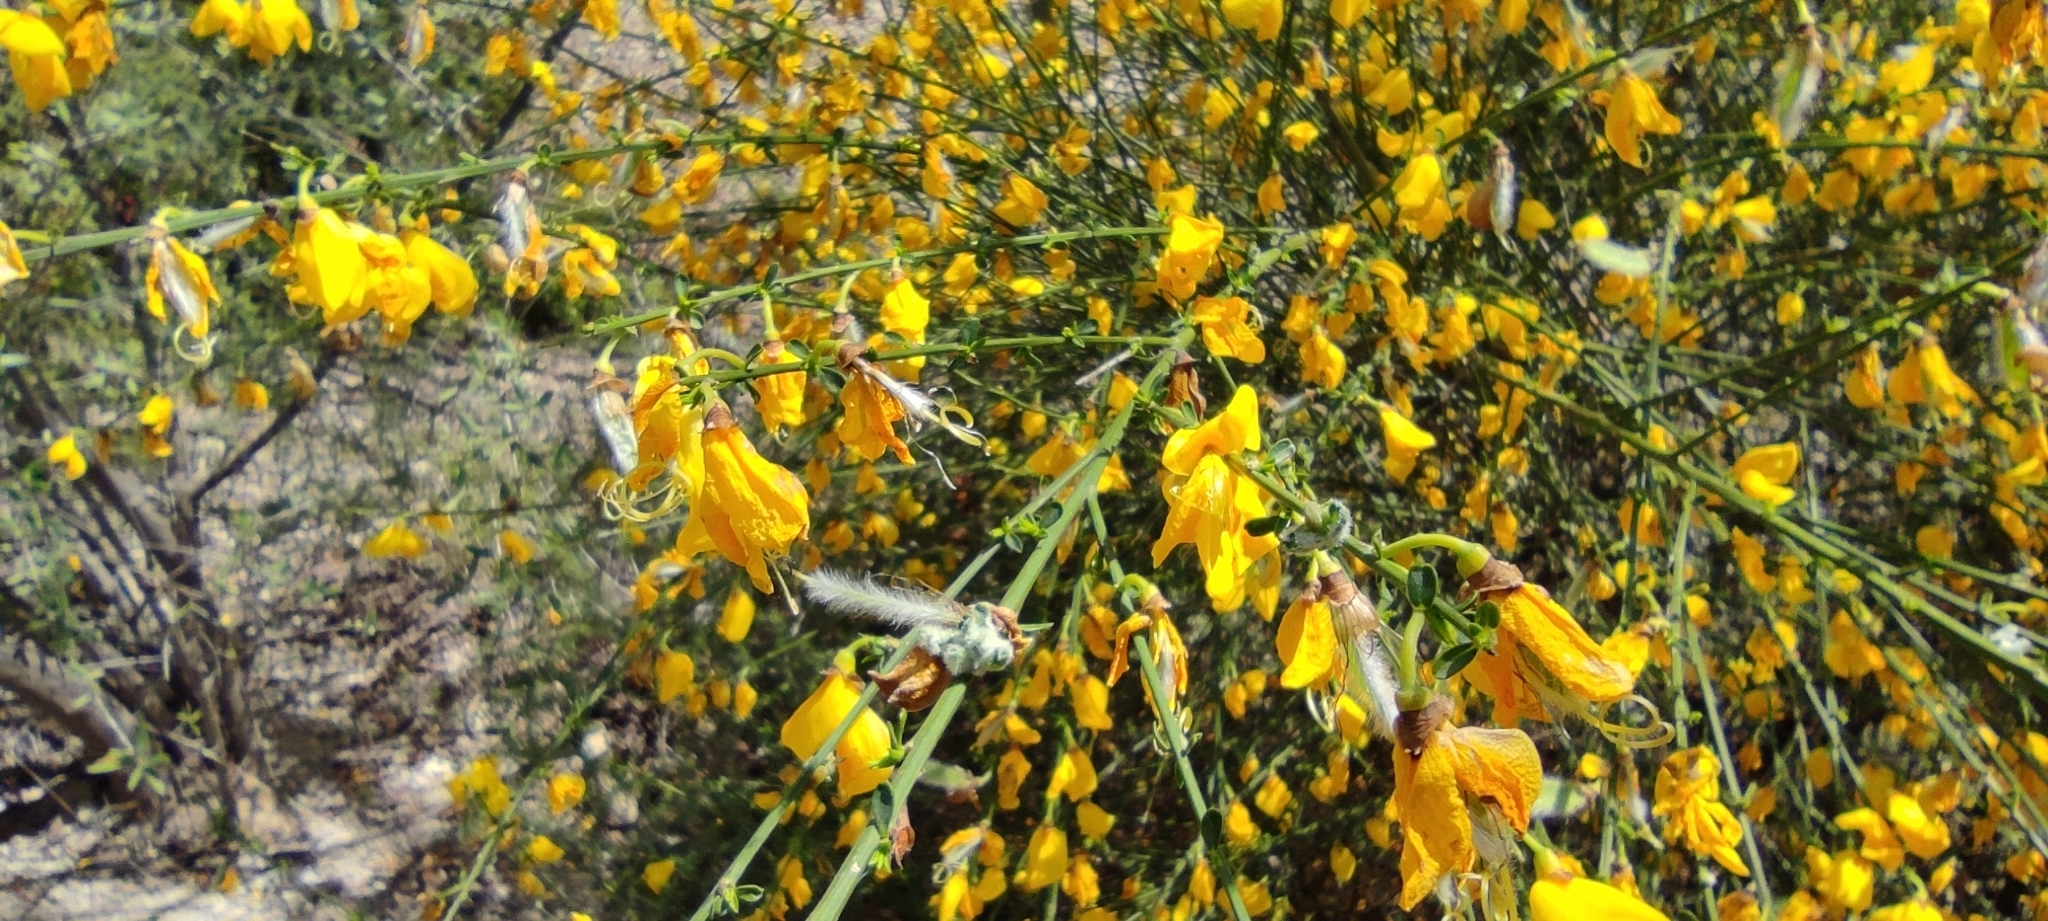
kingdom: Plantae
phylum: Tracheophyta
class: Magnoliopsida
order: Fabales
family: Fabaceae
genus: Cytisus
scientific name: Cytisus scoparius
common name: Scotch broom
